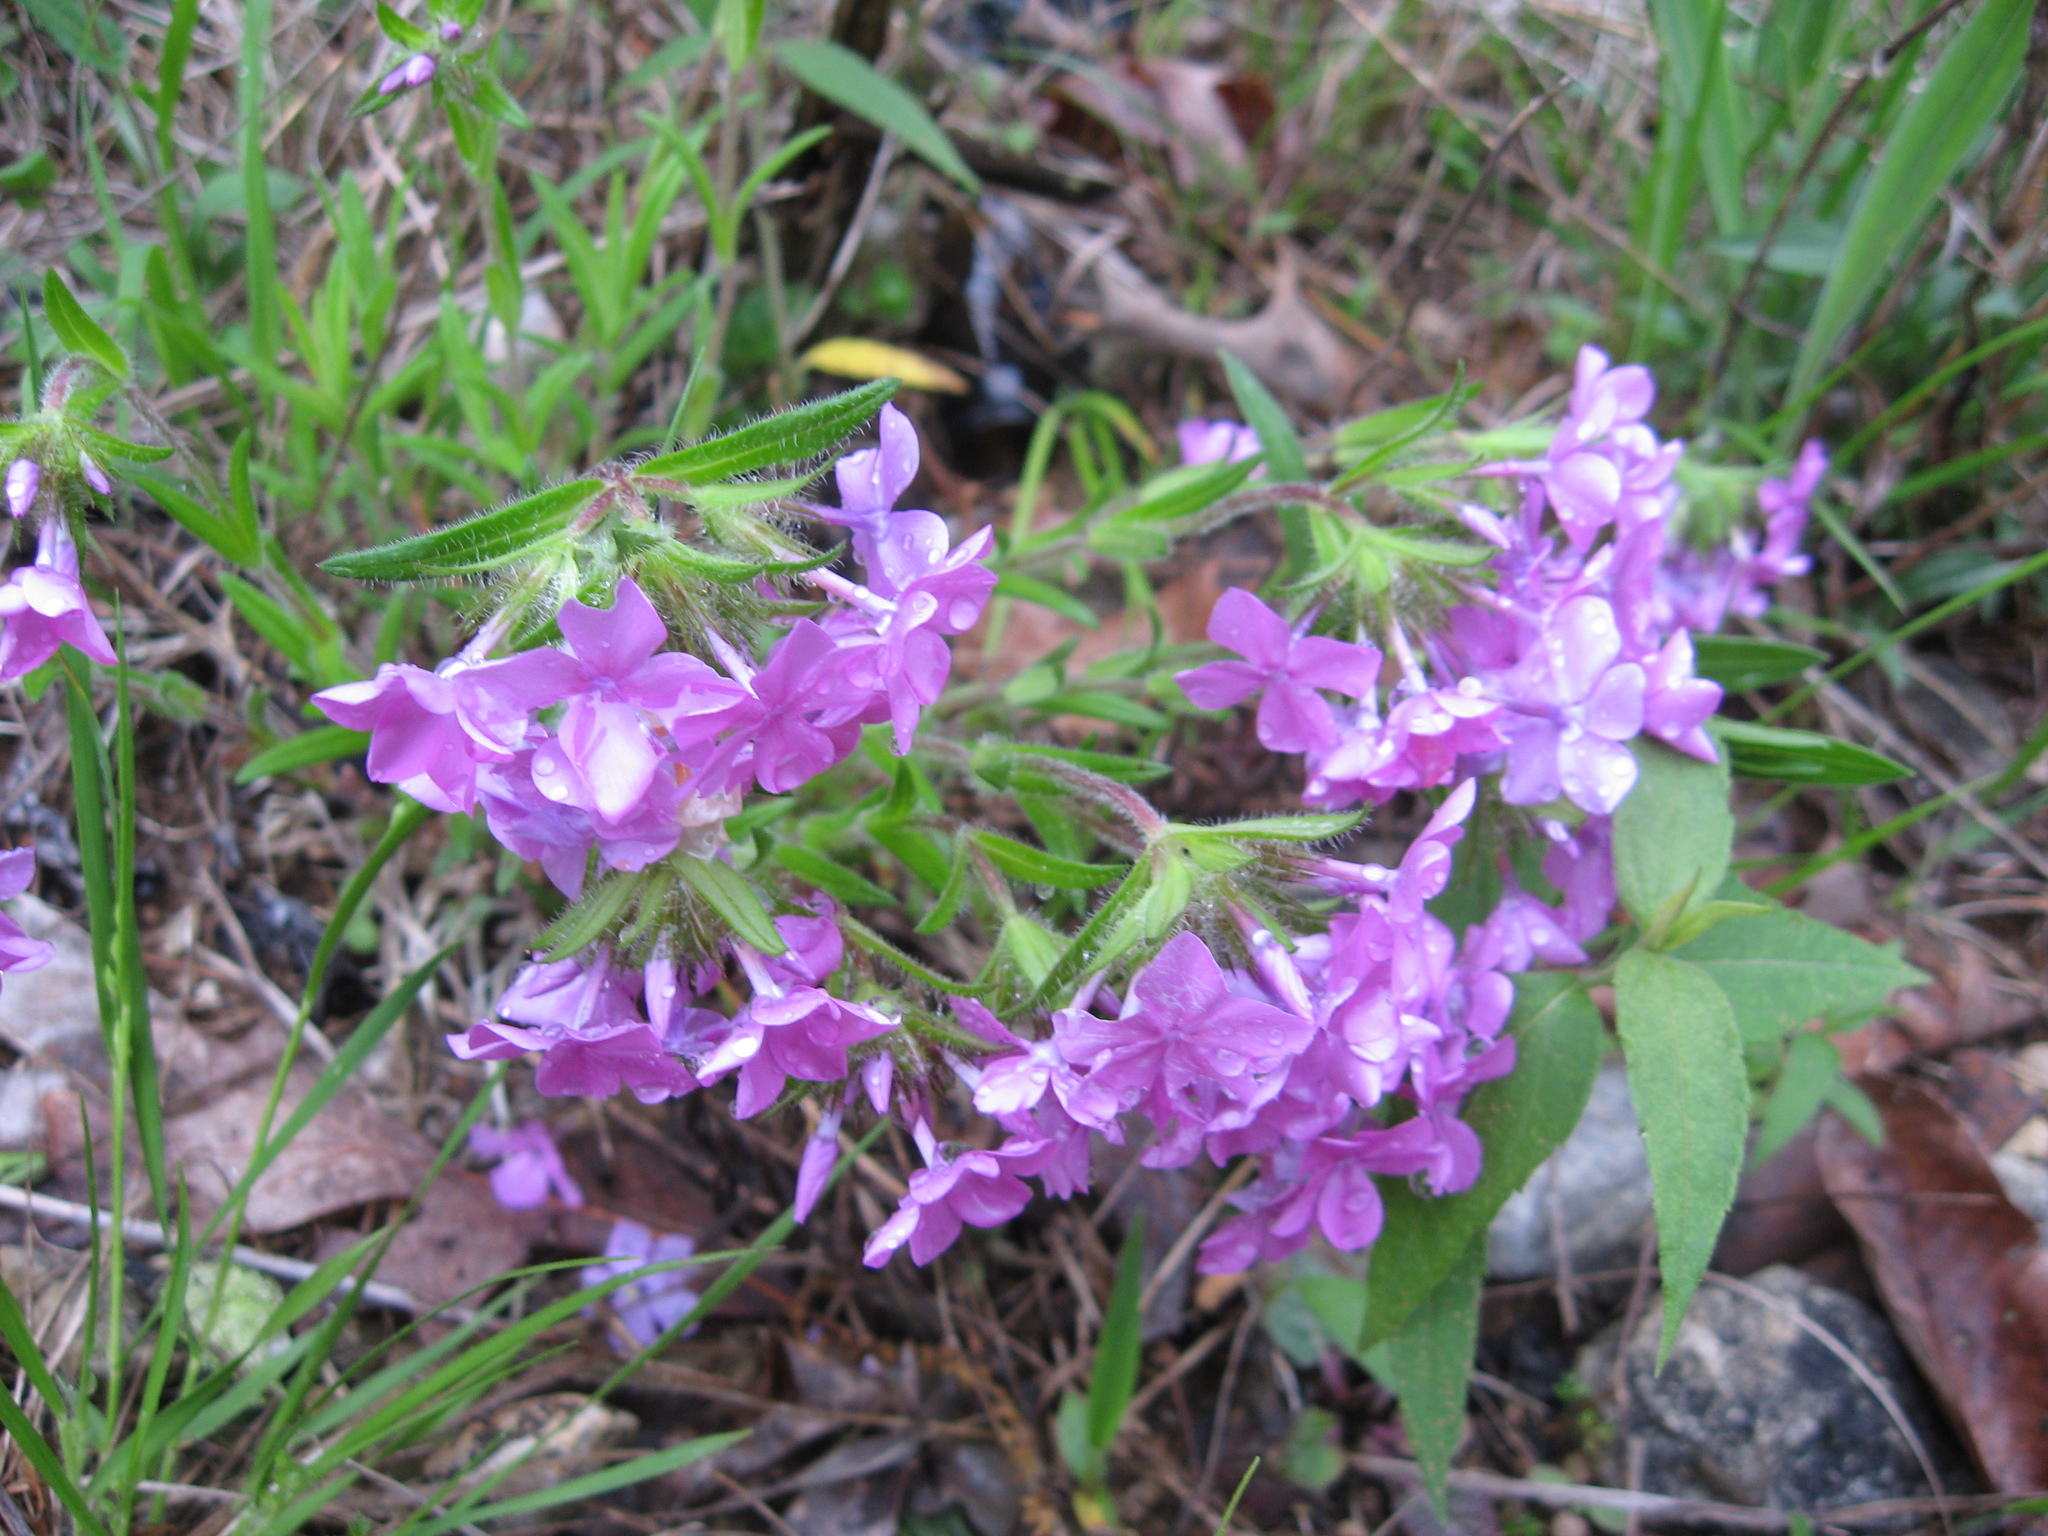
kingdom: Plantae
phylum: Tracheophyta
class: Magnoliopsida
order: Ericales
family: Polemoniaceae
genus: Phlox
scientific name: Phlox amoena
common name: Hairy phlox
